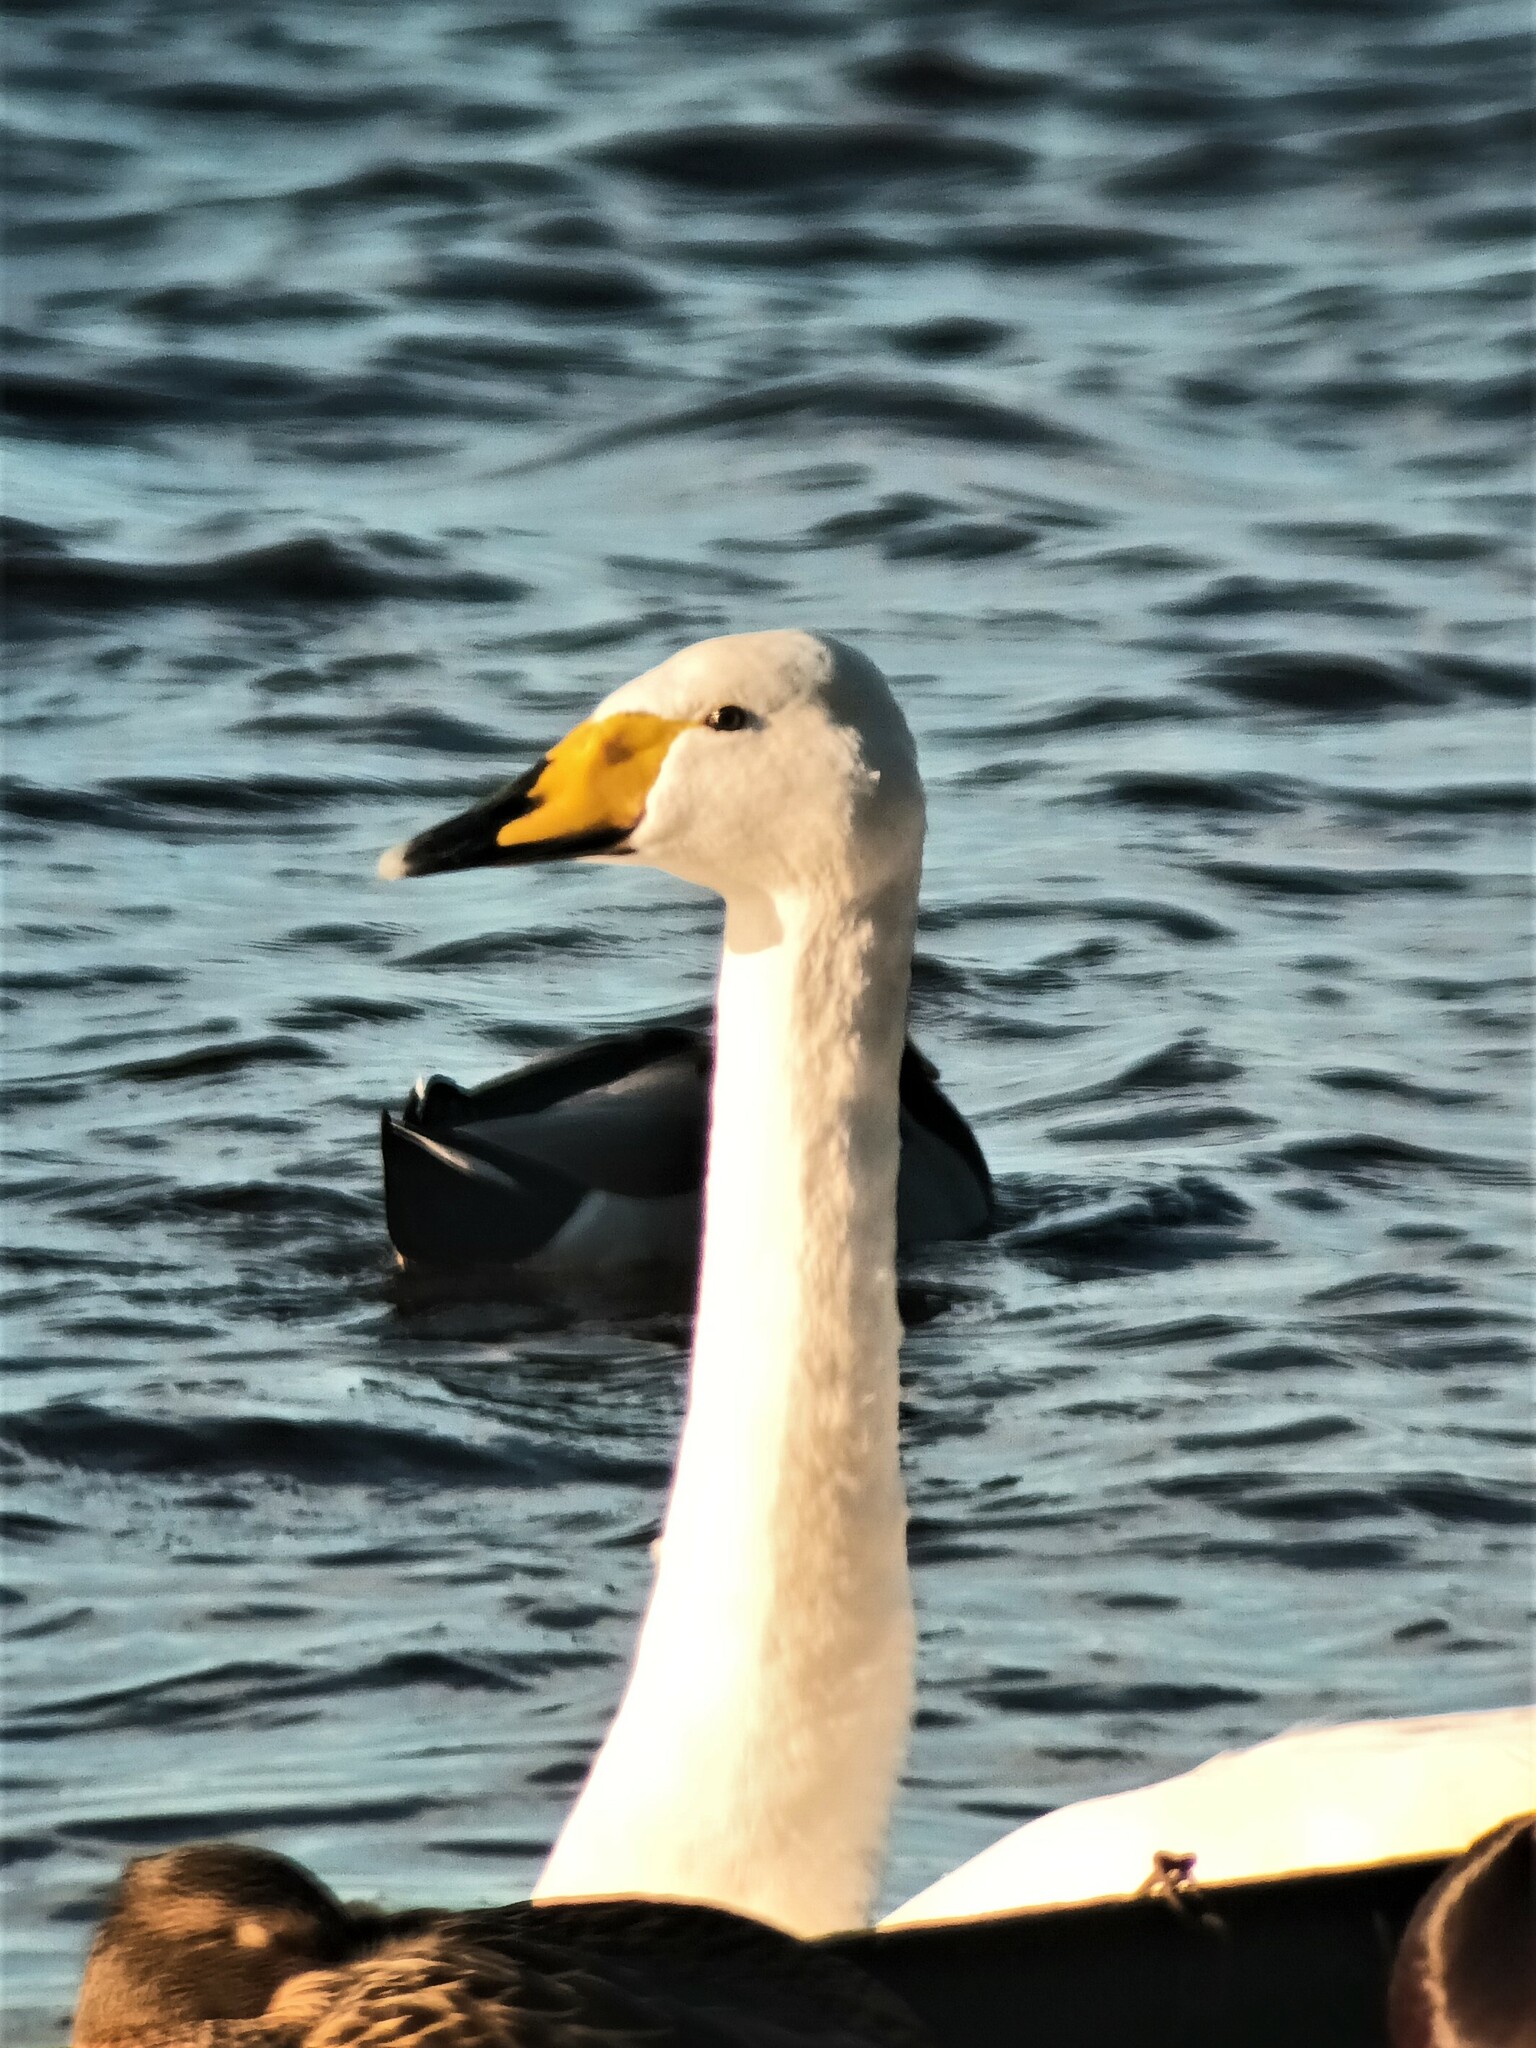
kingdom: Animalia
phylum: Chordata
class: Aves
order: Anseriformes
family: Anatidae
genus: Cygnus
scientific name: Cygnus cygnus
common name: Whooper swan
